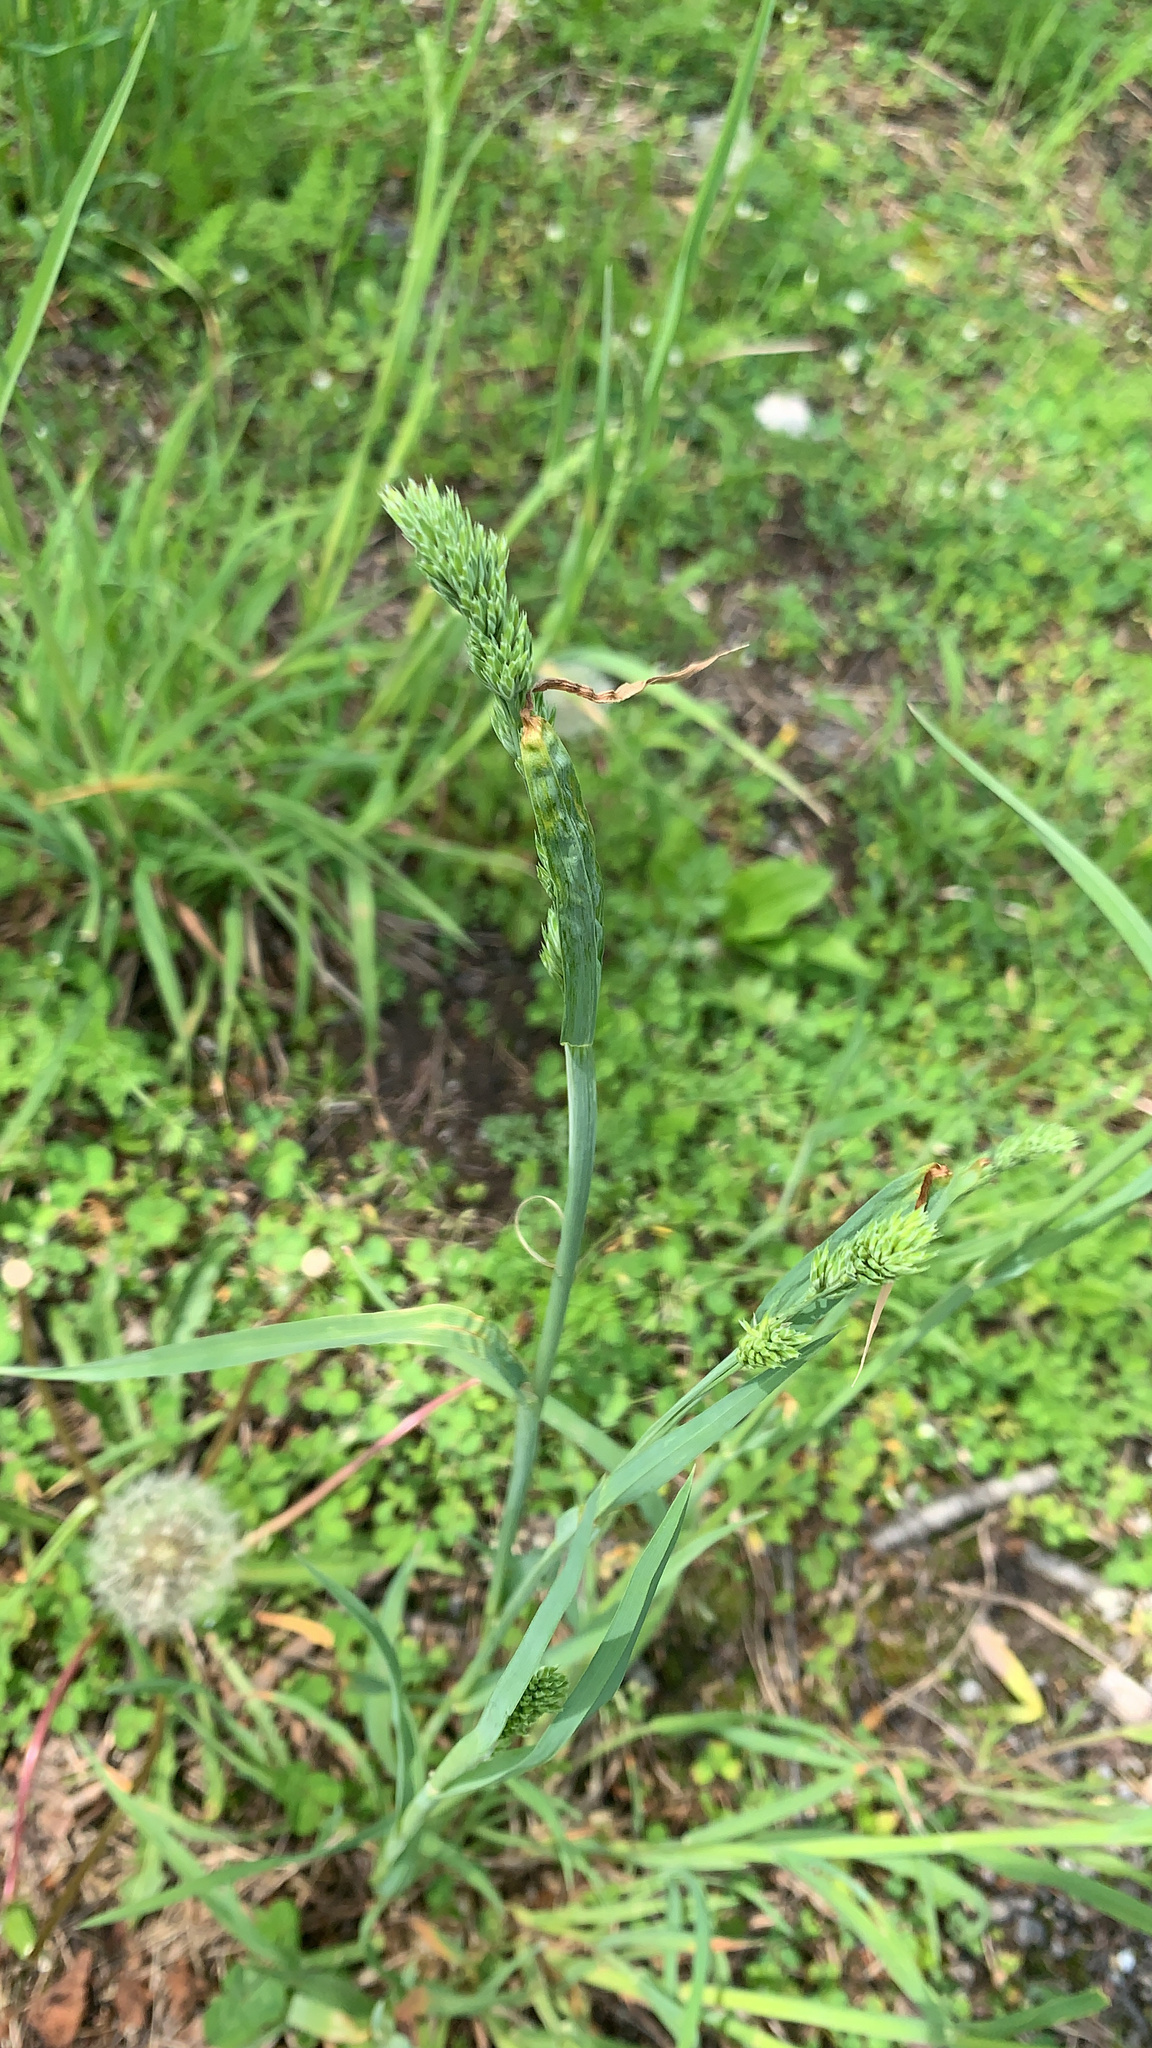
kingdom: Plantae
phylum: Tracheophyta
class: Liliopsida
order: Poales
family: Poaceae
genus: Dactylis
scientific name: Dactylis glomerata
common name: Orchardgrass
